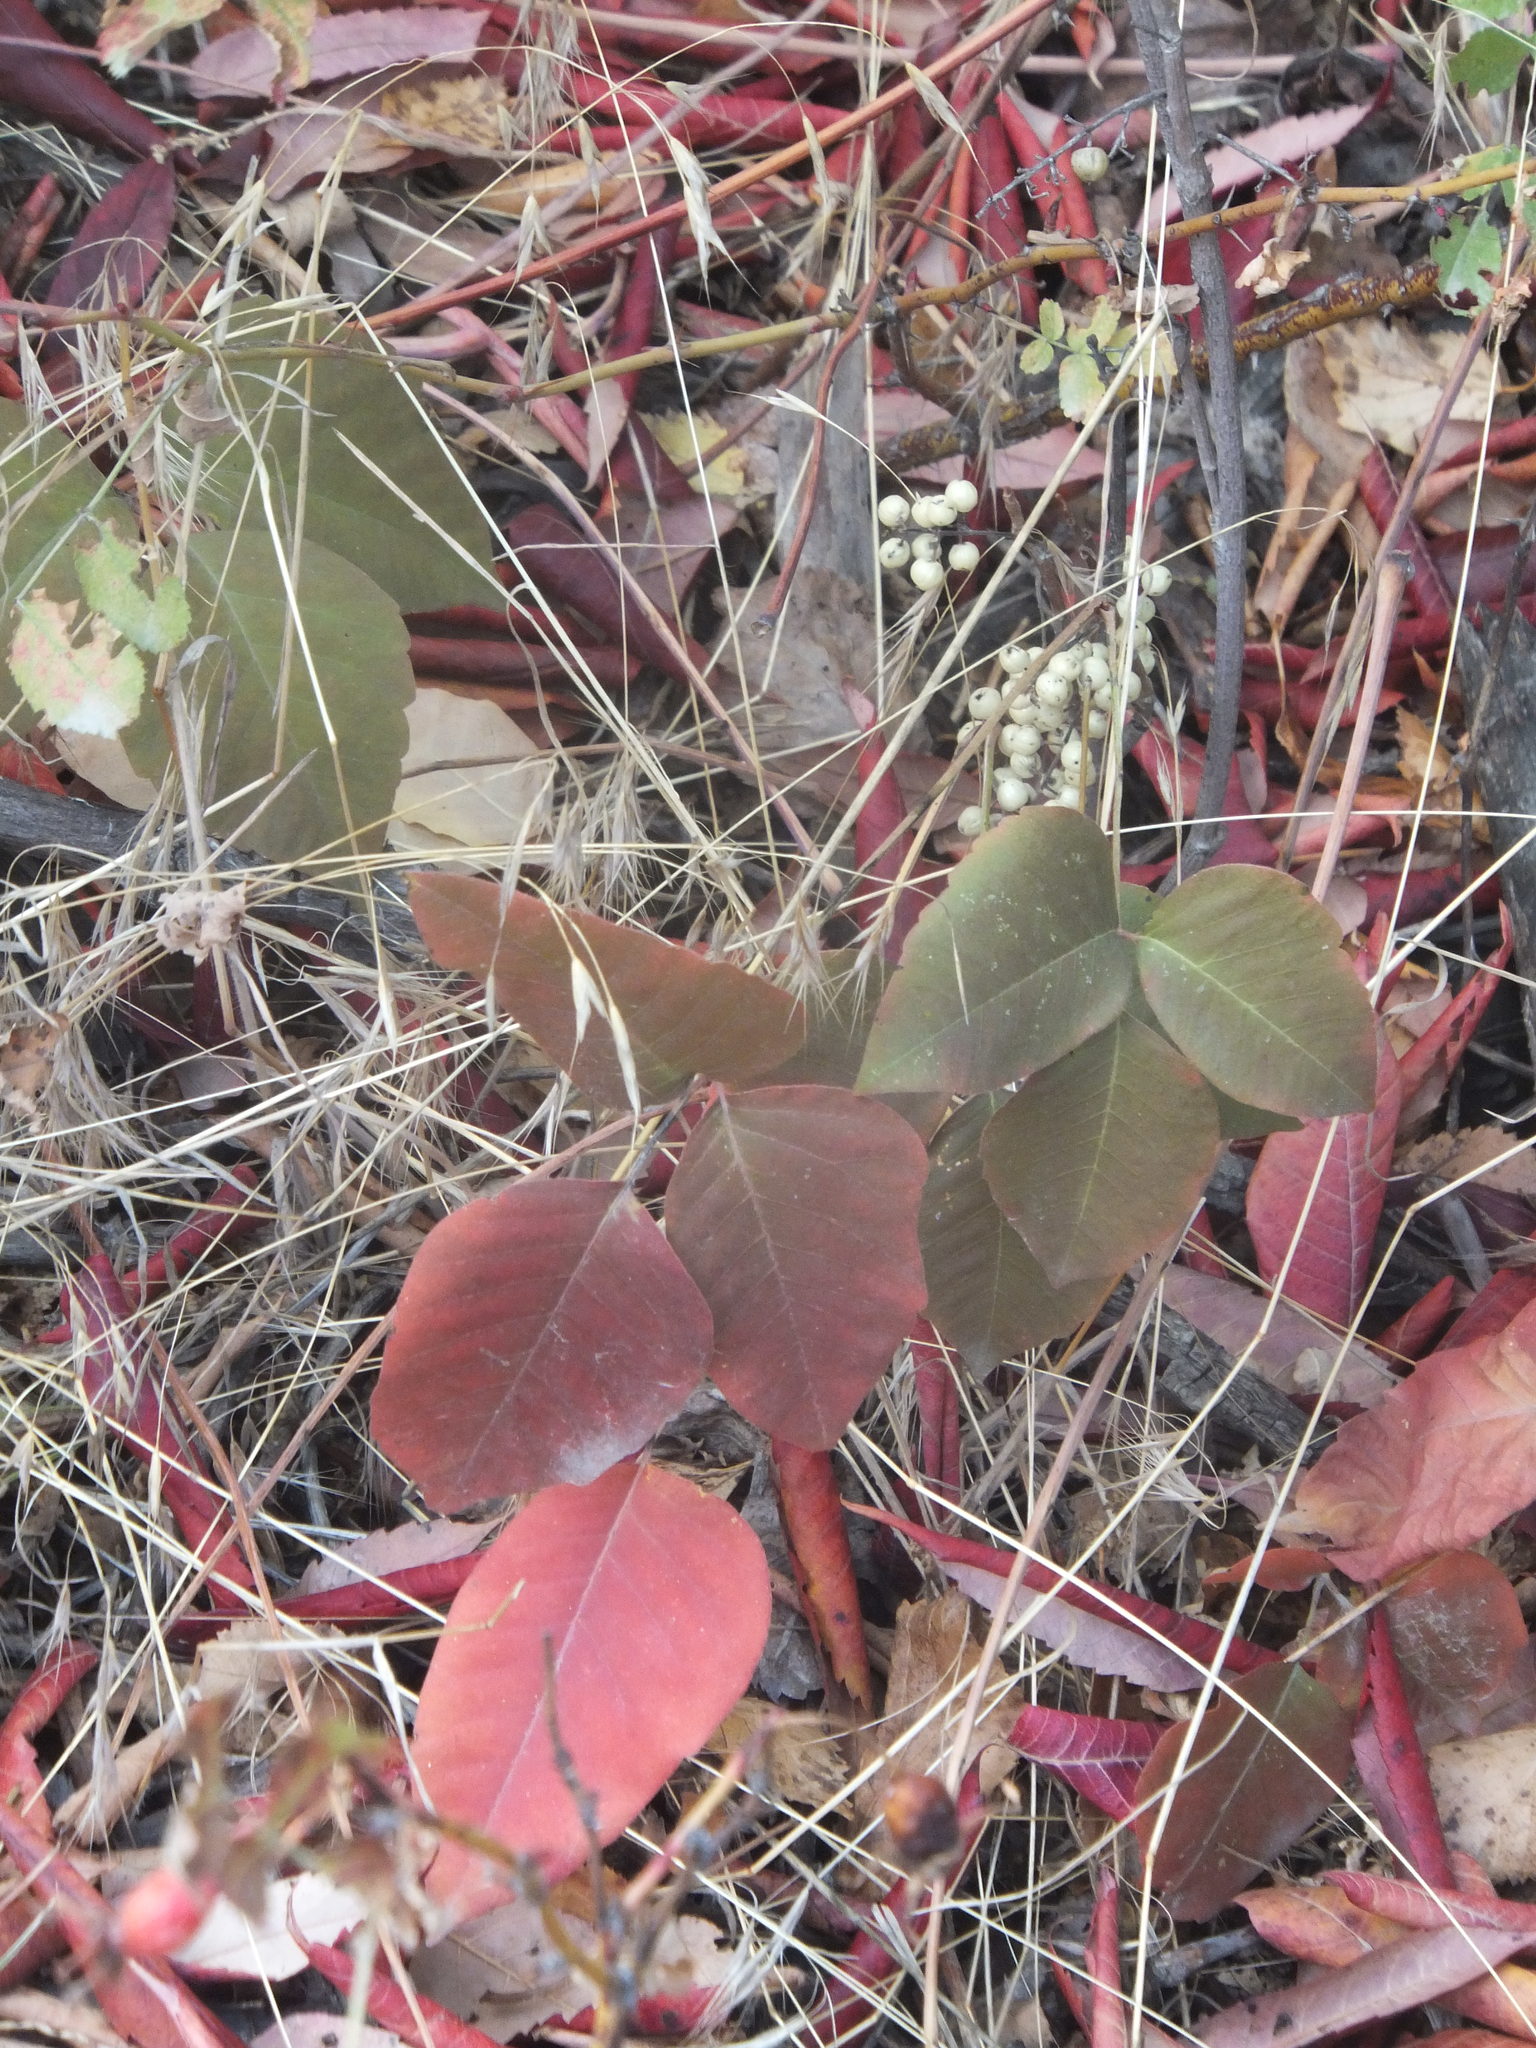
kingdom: Plantae
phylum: Tracheophyta
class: Magnoliopsida
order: Sapindales
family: Anacardiaceae
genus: Toxicodendron
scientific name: Toxicodendron rydbergii
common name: Rydberg's poison-ivy
